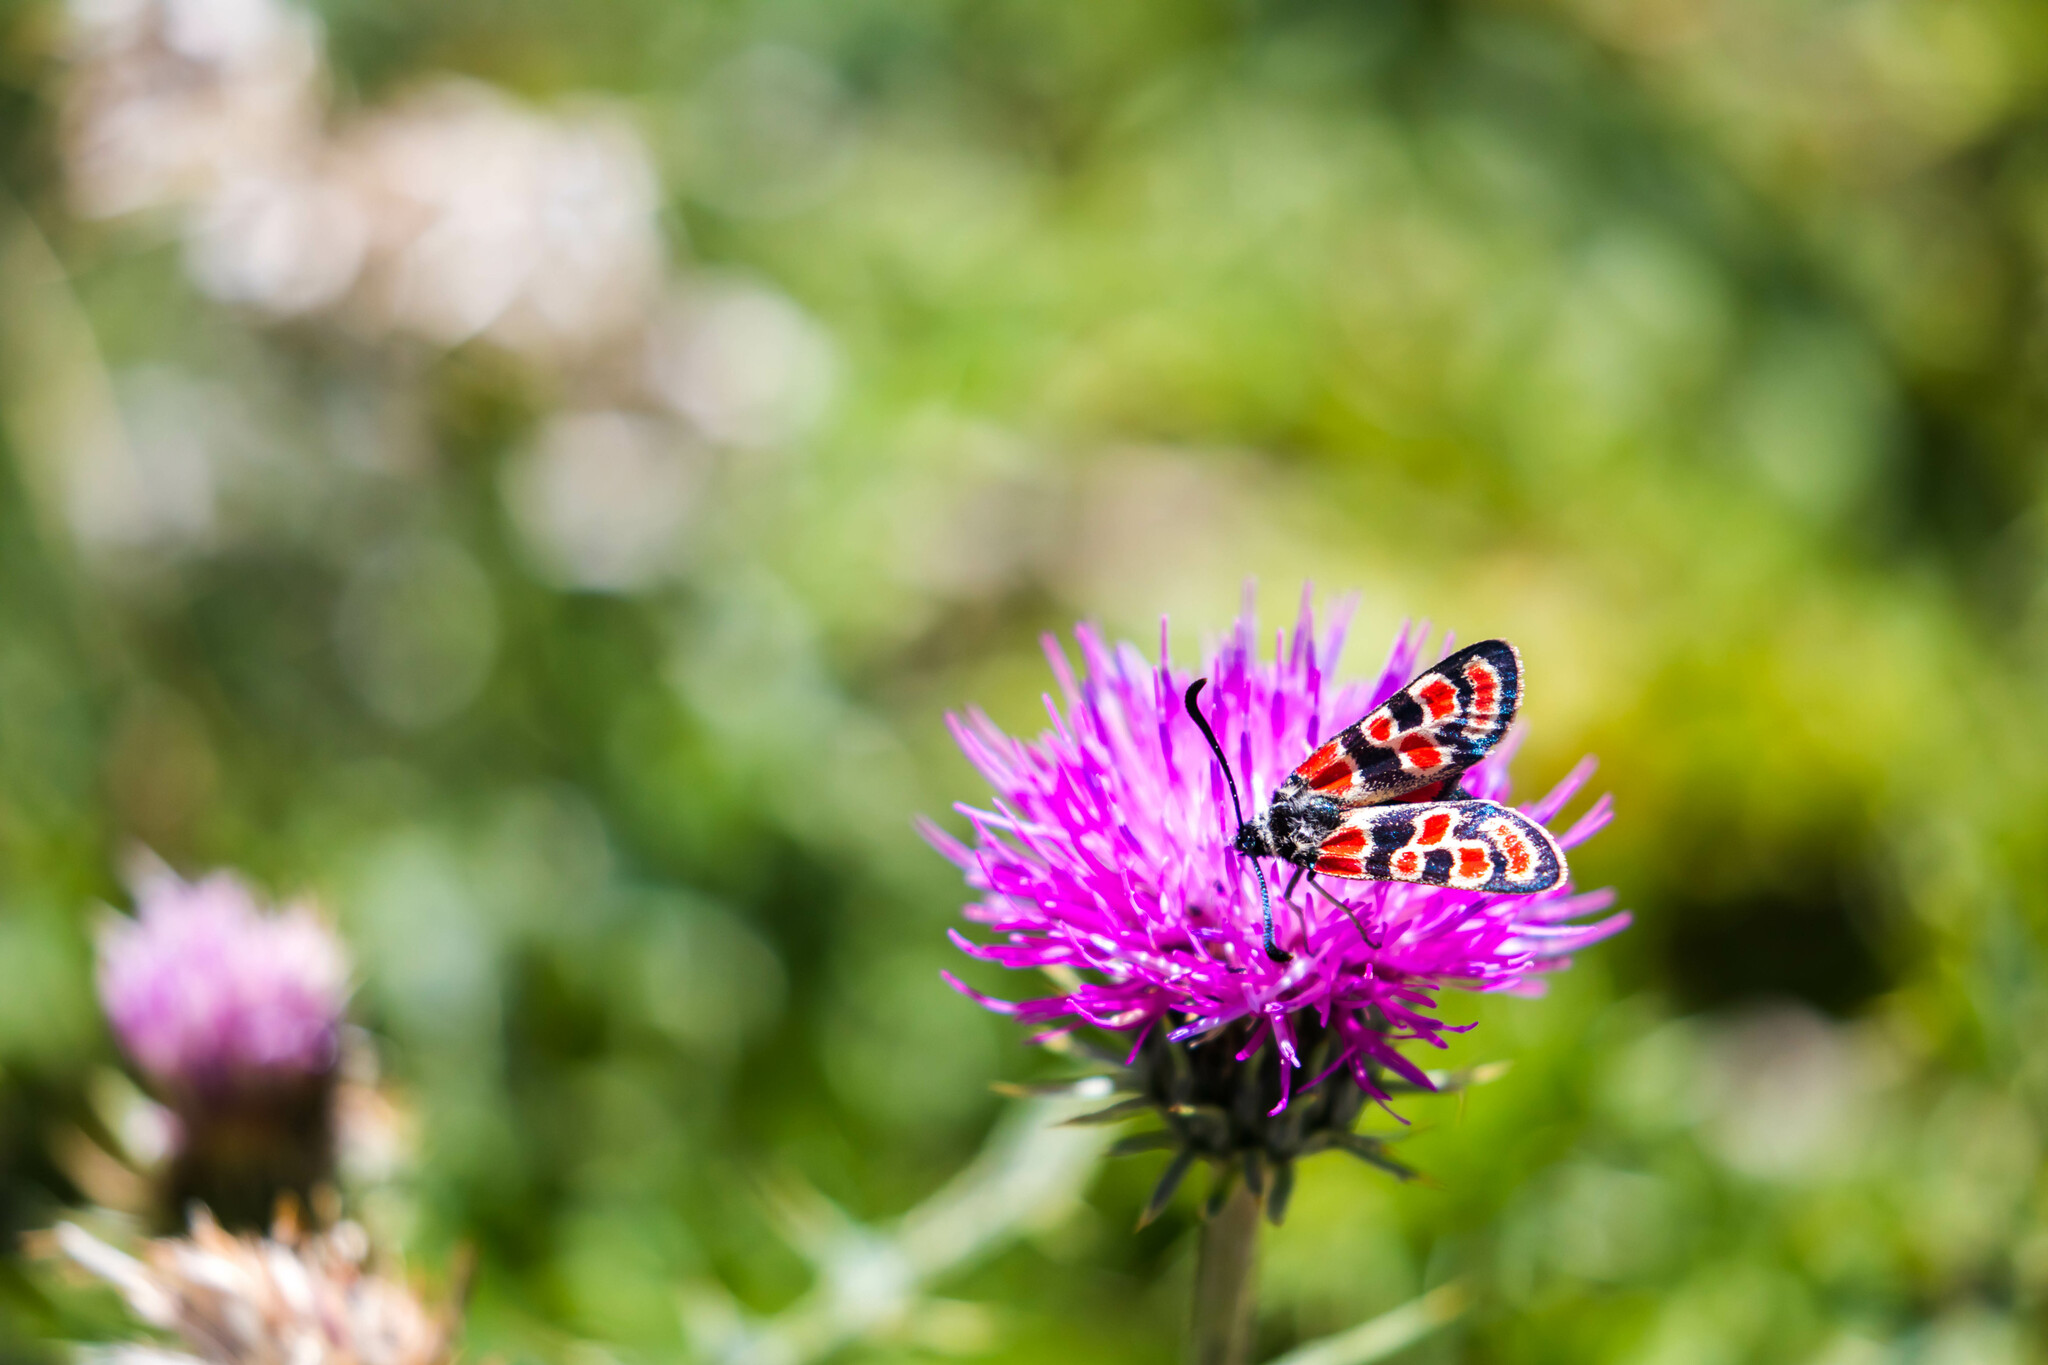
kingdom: Animalia
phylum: Arthropoda
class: Insecta
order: Lepidoptera
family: Zygaenidae
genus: Zygaena
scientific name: Zygaena carniolica
